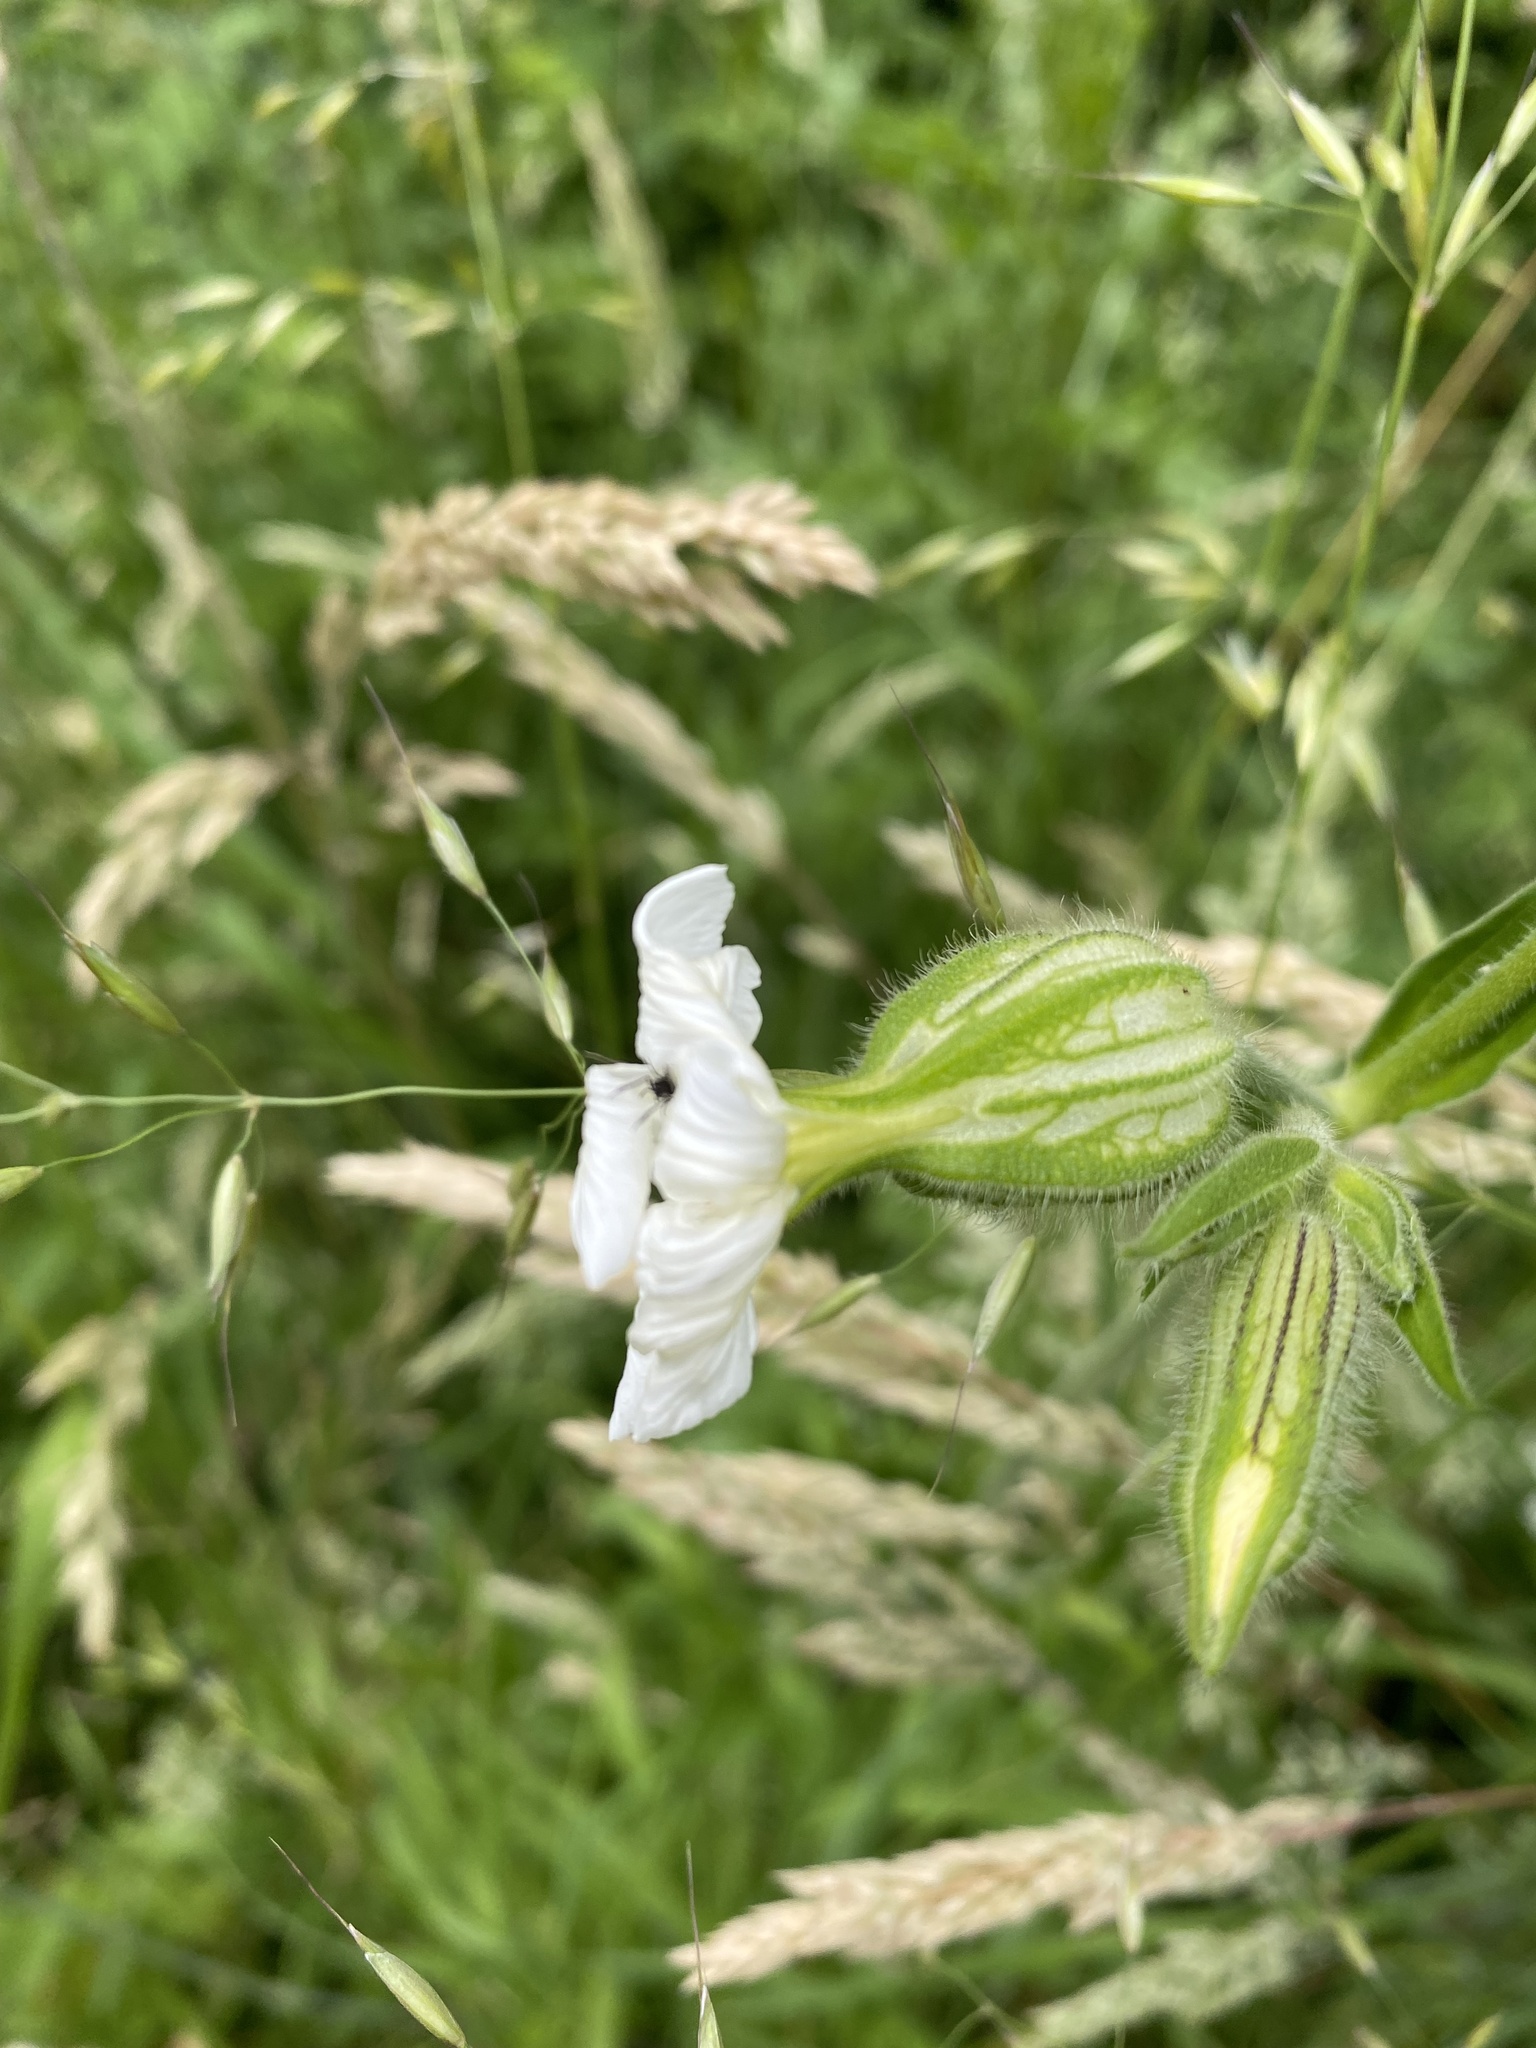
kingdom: Plantae
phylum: Tracheophyta
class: Magnoliopsida
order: Caryophyllales
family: Caryophyllaceae
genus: Silene
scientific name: Silene latifolia
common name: White campion
